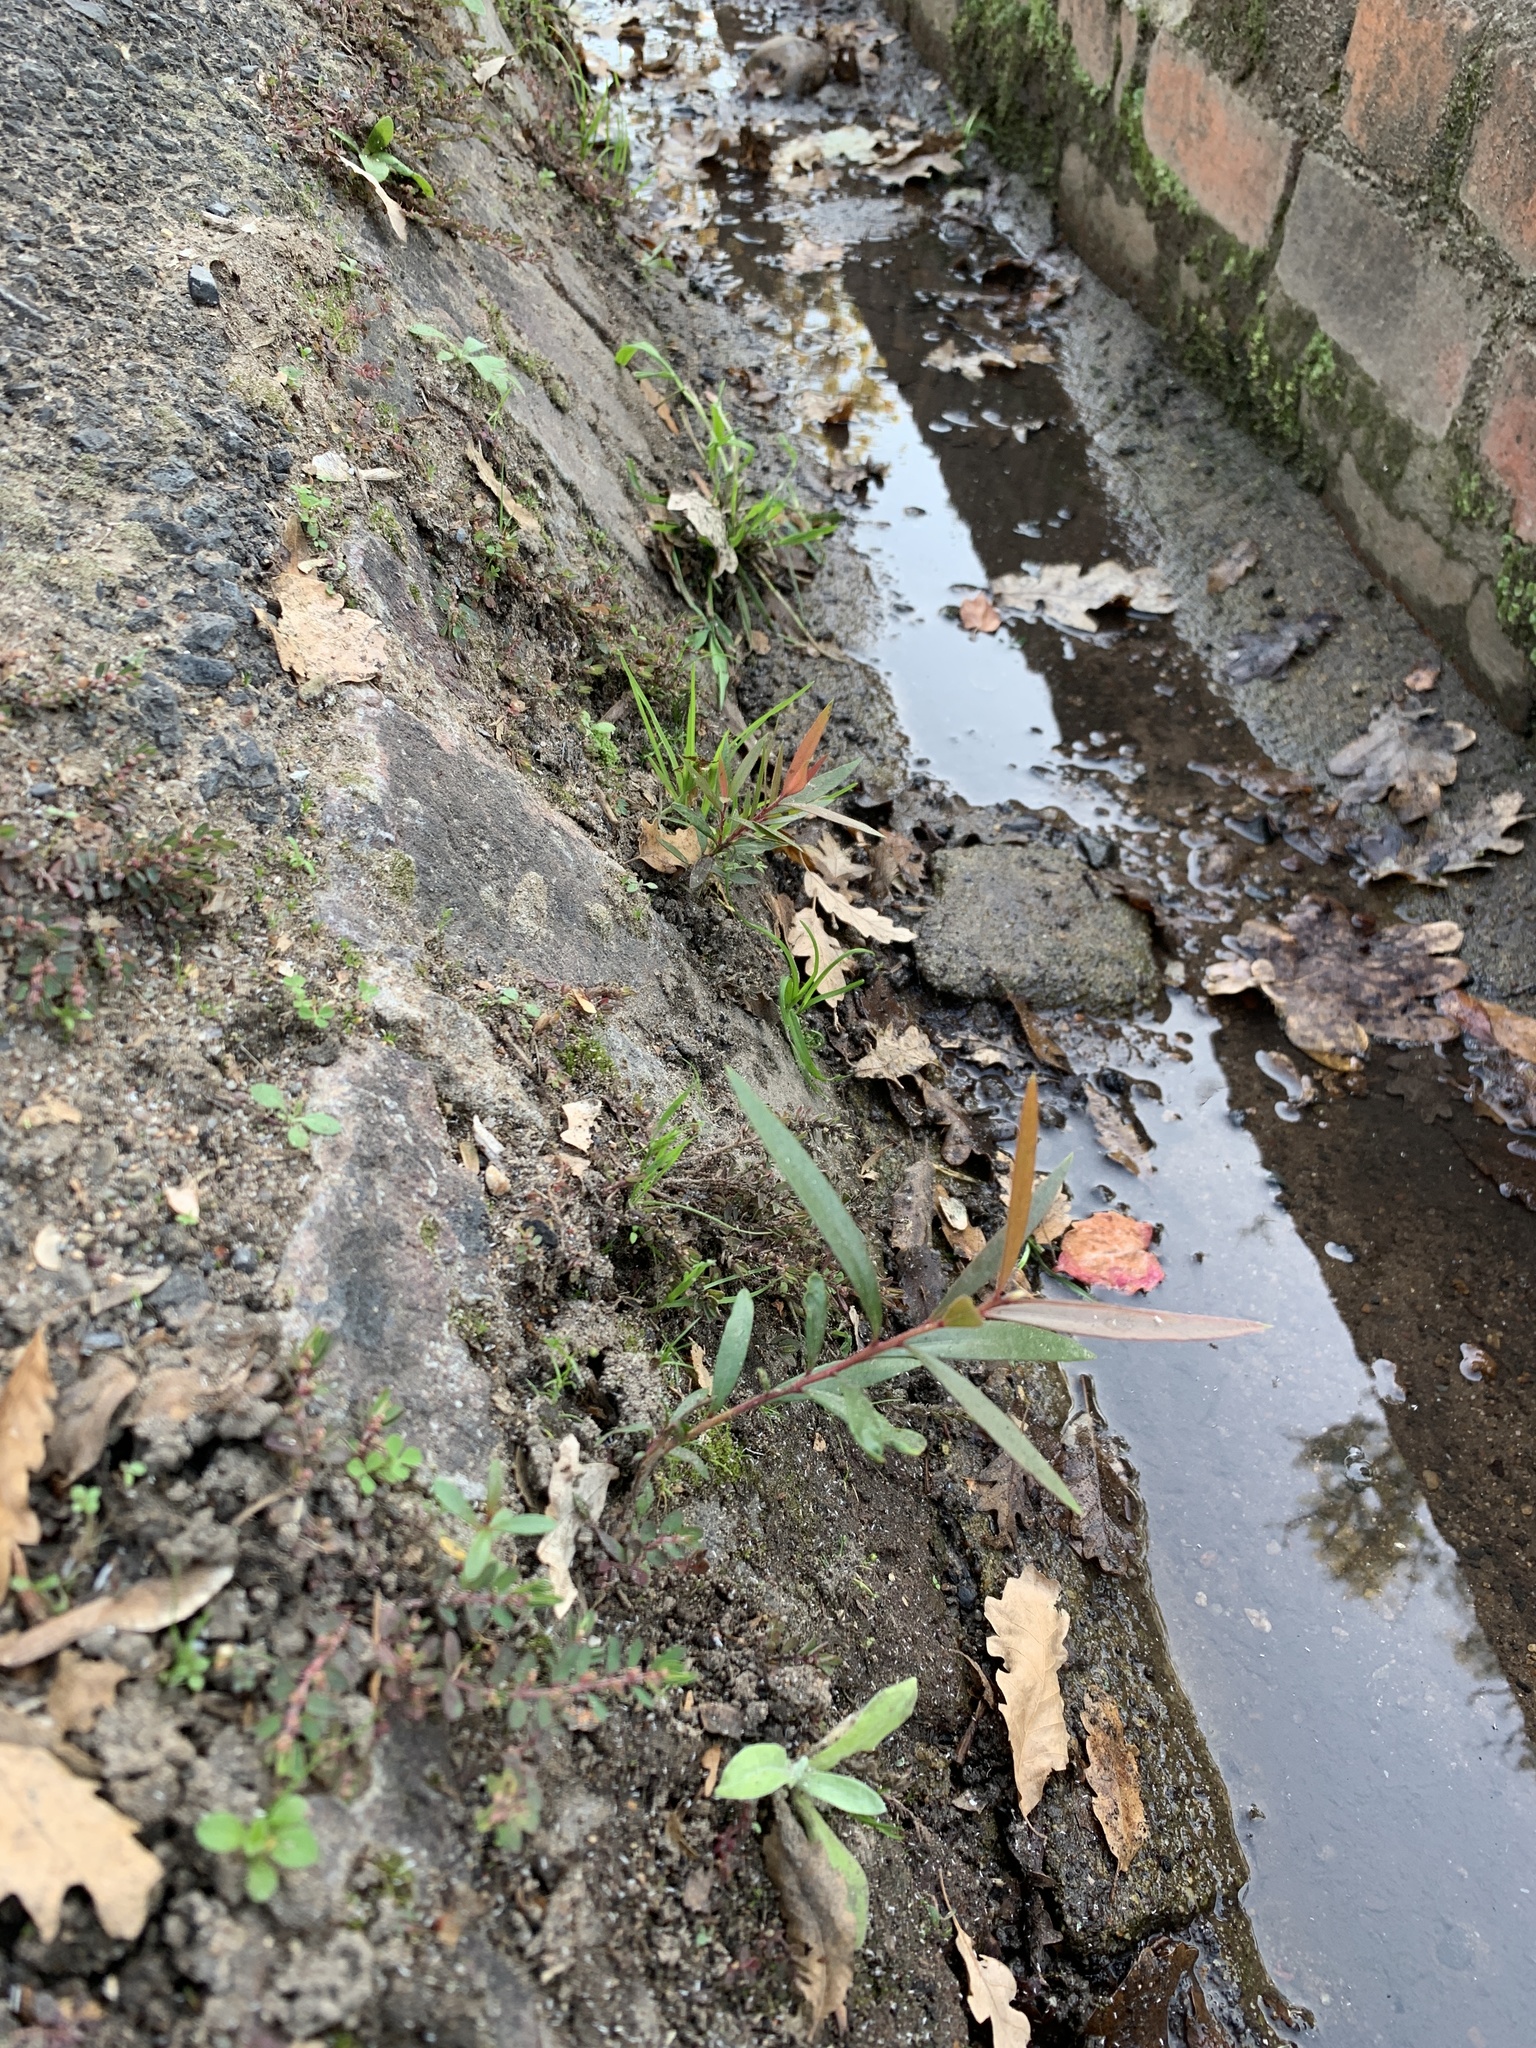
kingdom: Plantae
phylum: Tracheophyta
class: Magnoliopsida
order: Myrtales
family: Myrtaceae
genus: Callistemon
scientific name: Callistemon viminalis
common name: Drooping bottlebrush
